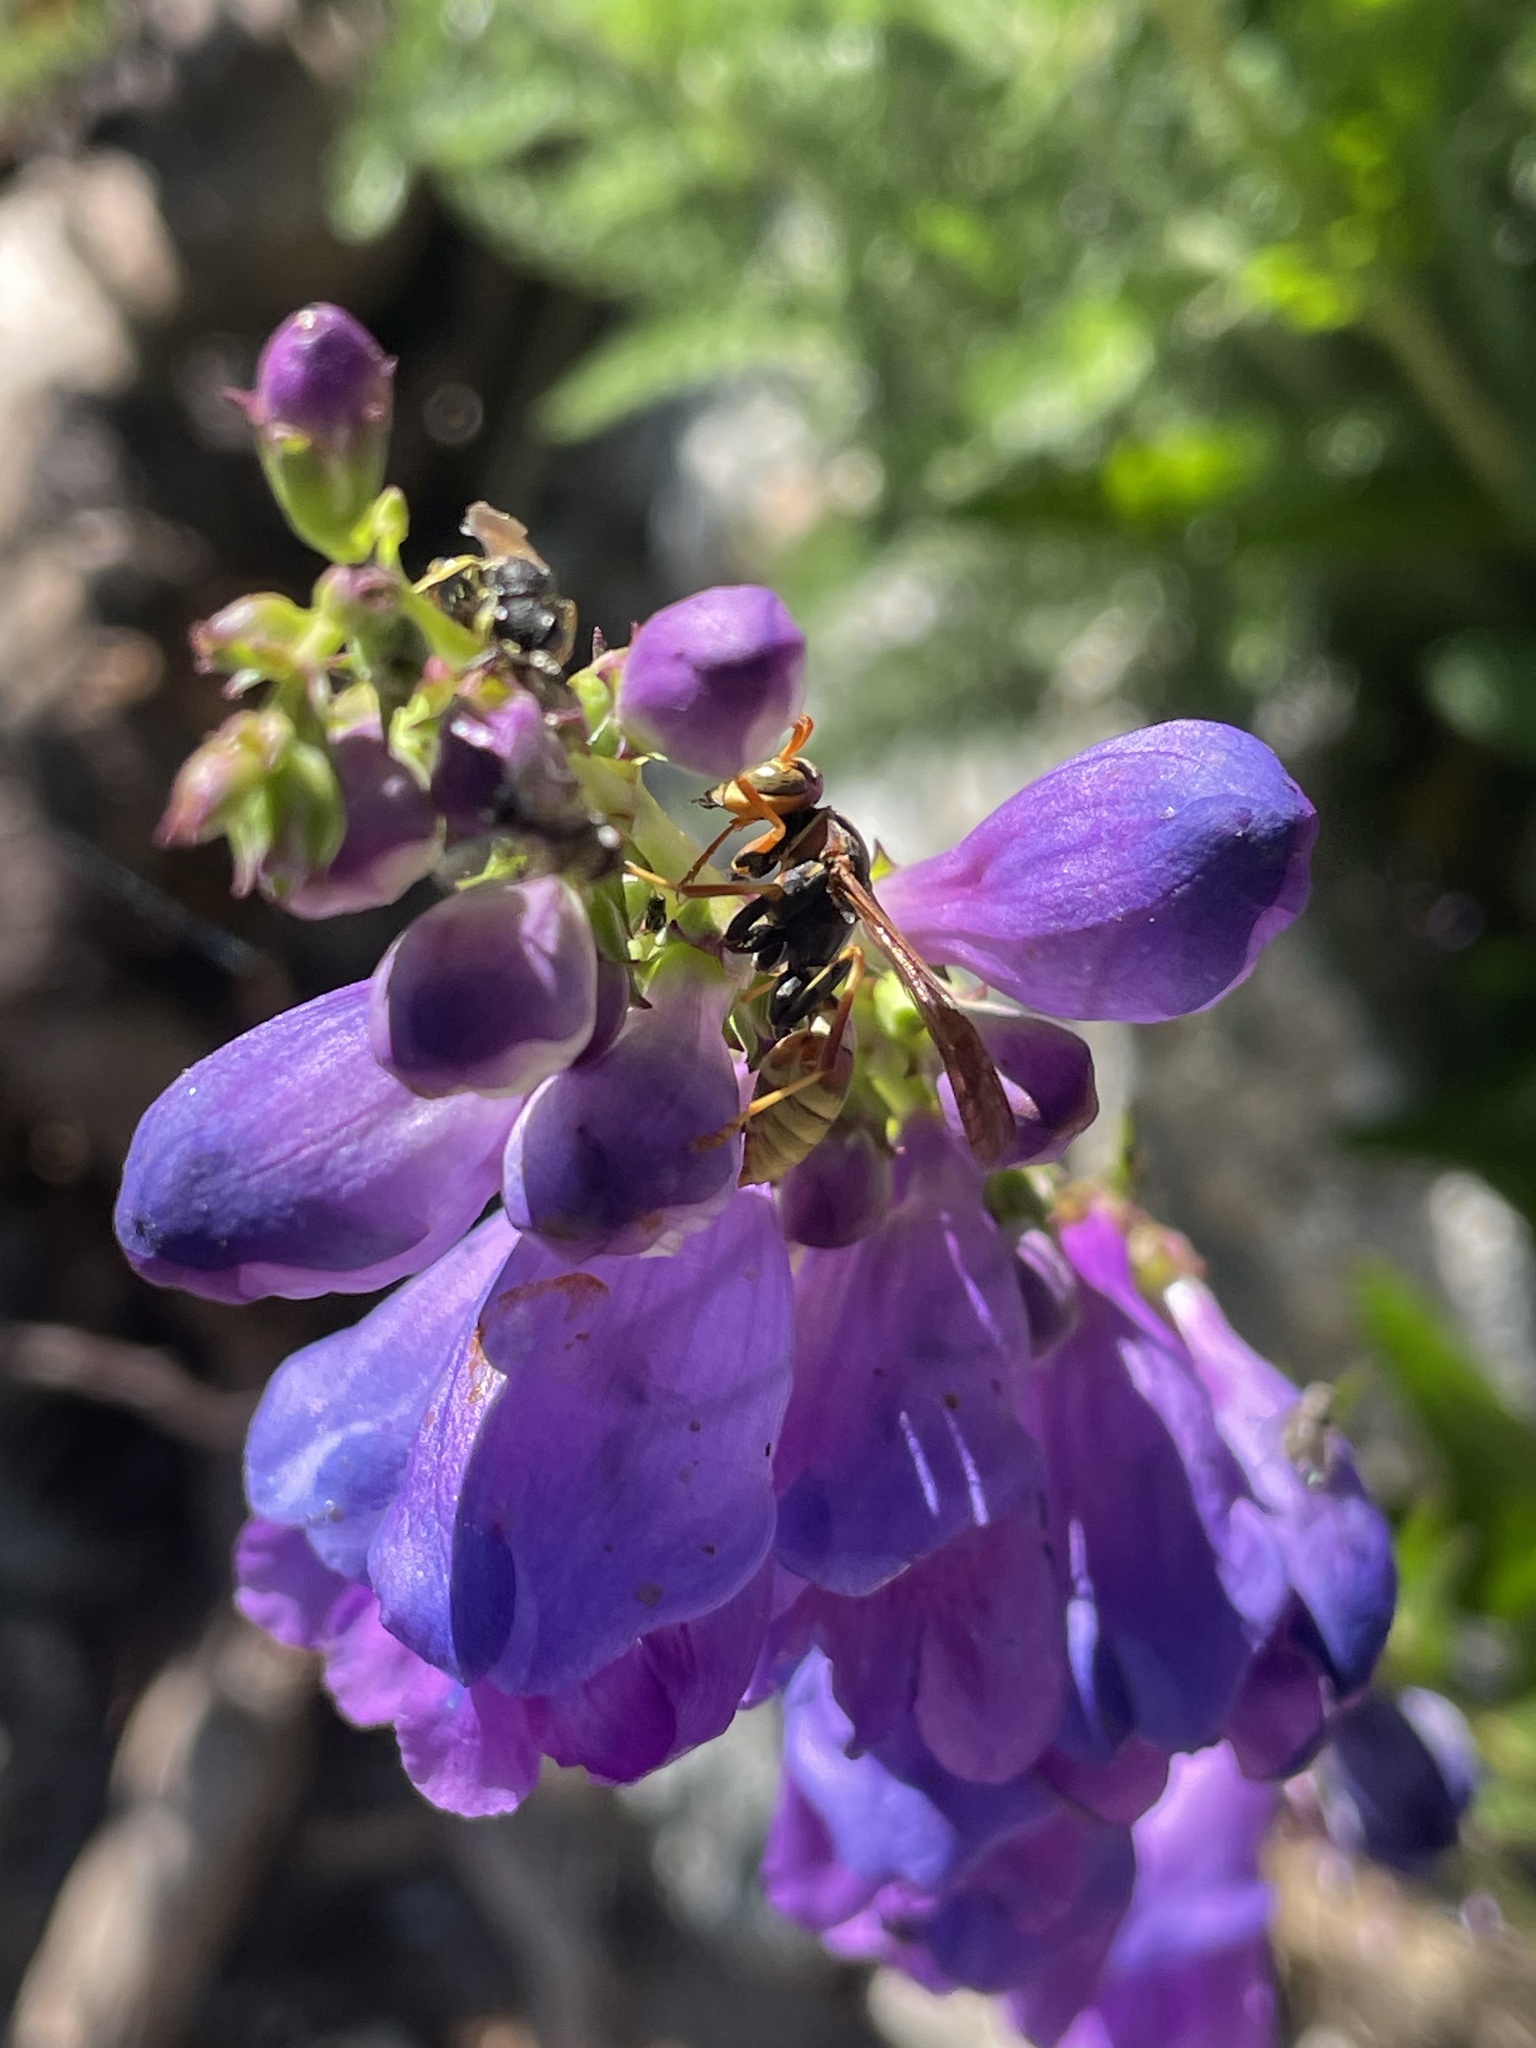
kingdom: Animalia
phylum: Arthropoda
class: Insecta
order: Hymenoptera
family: Eumenidae
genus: Polistes
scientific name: Polistes dorsalis
